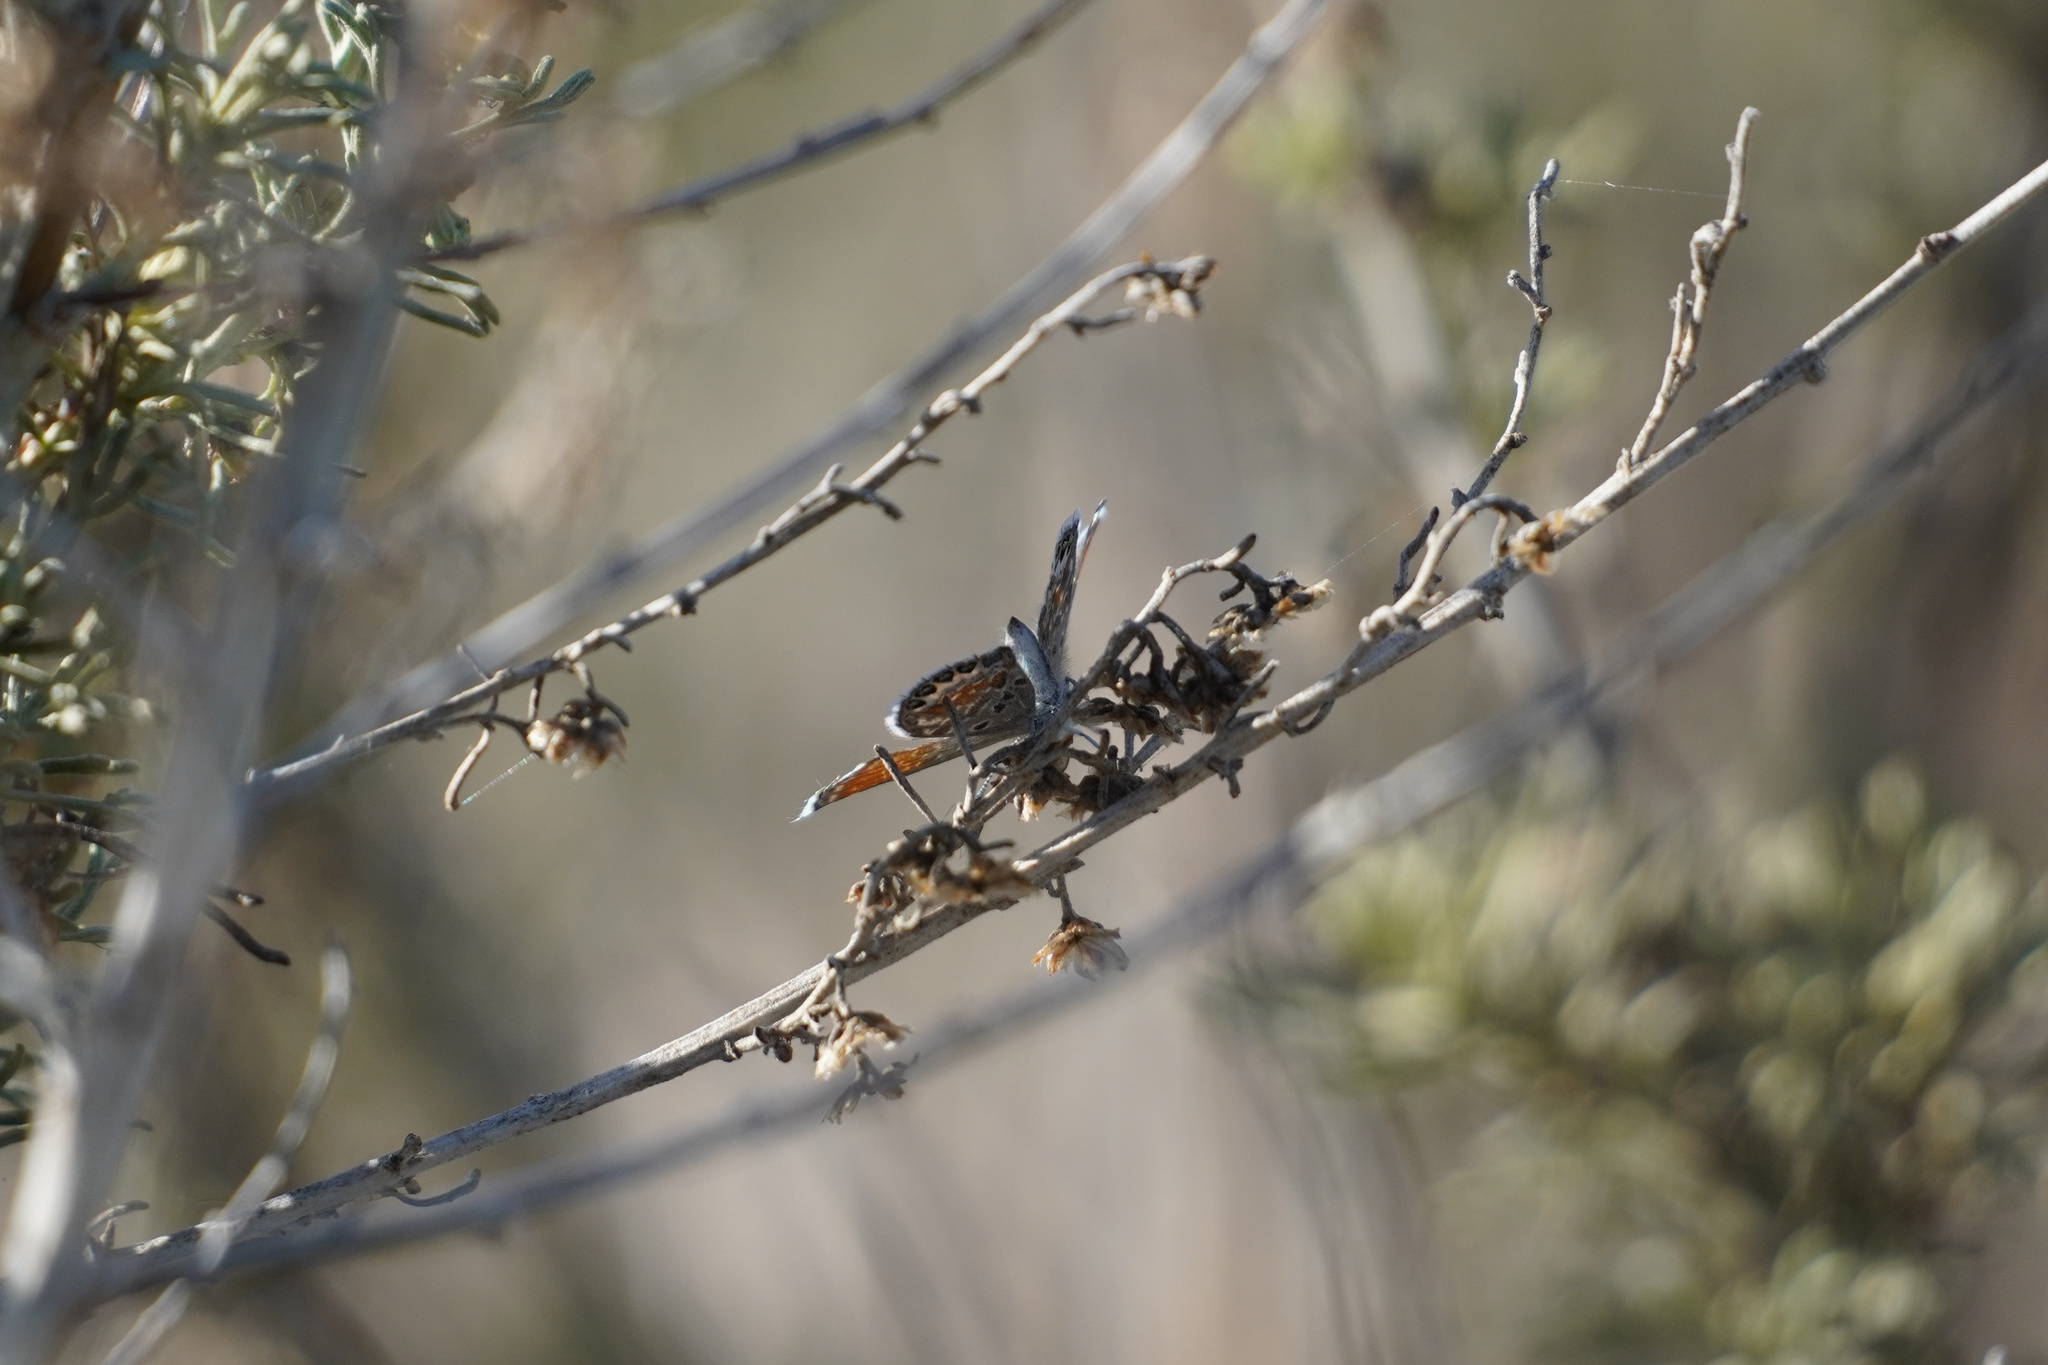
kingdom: Animalia
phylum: Arthropoda
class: Insecta
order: Lepidoptera
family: Lycaenidae
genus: Brephidium
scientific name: Brephidium exilis
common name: Pygmy blue
